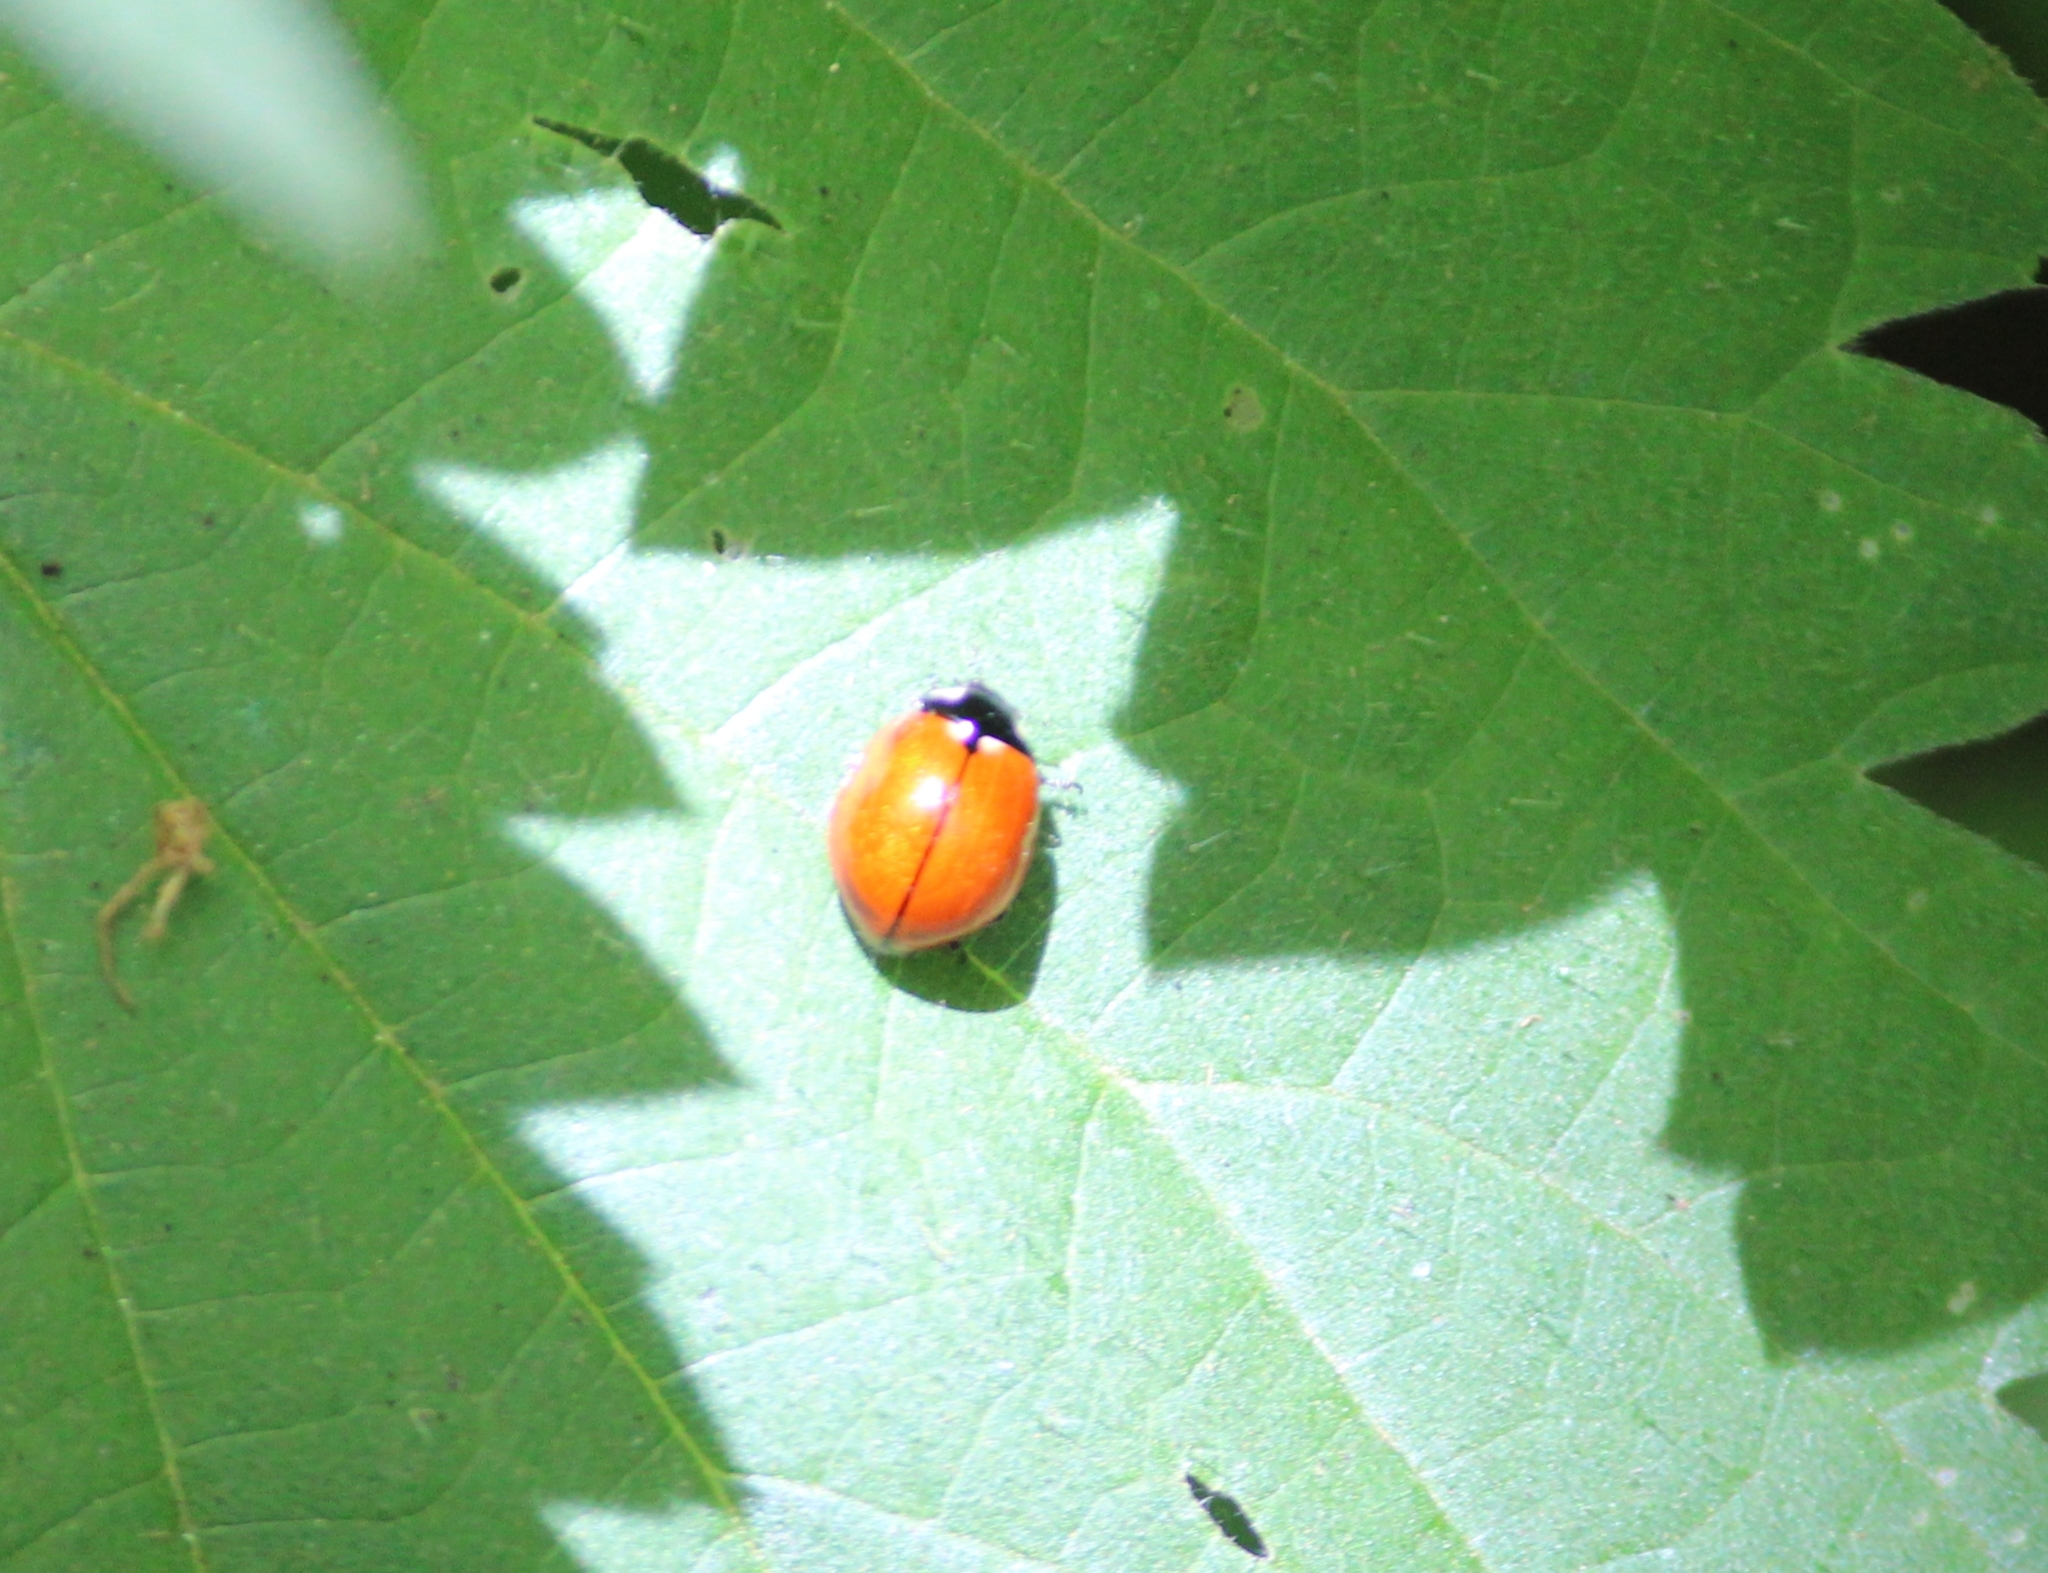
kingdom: Animalia
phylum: Arthropoda
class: Insecta
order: Coleoptera
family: Coccinellidae
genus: Coccinella
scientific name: Coccinella californica
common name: Lady beetle
